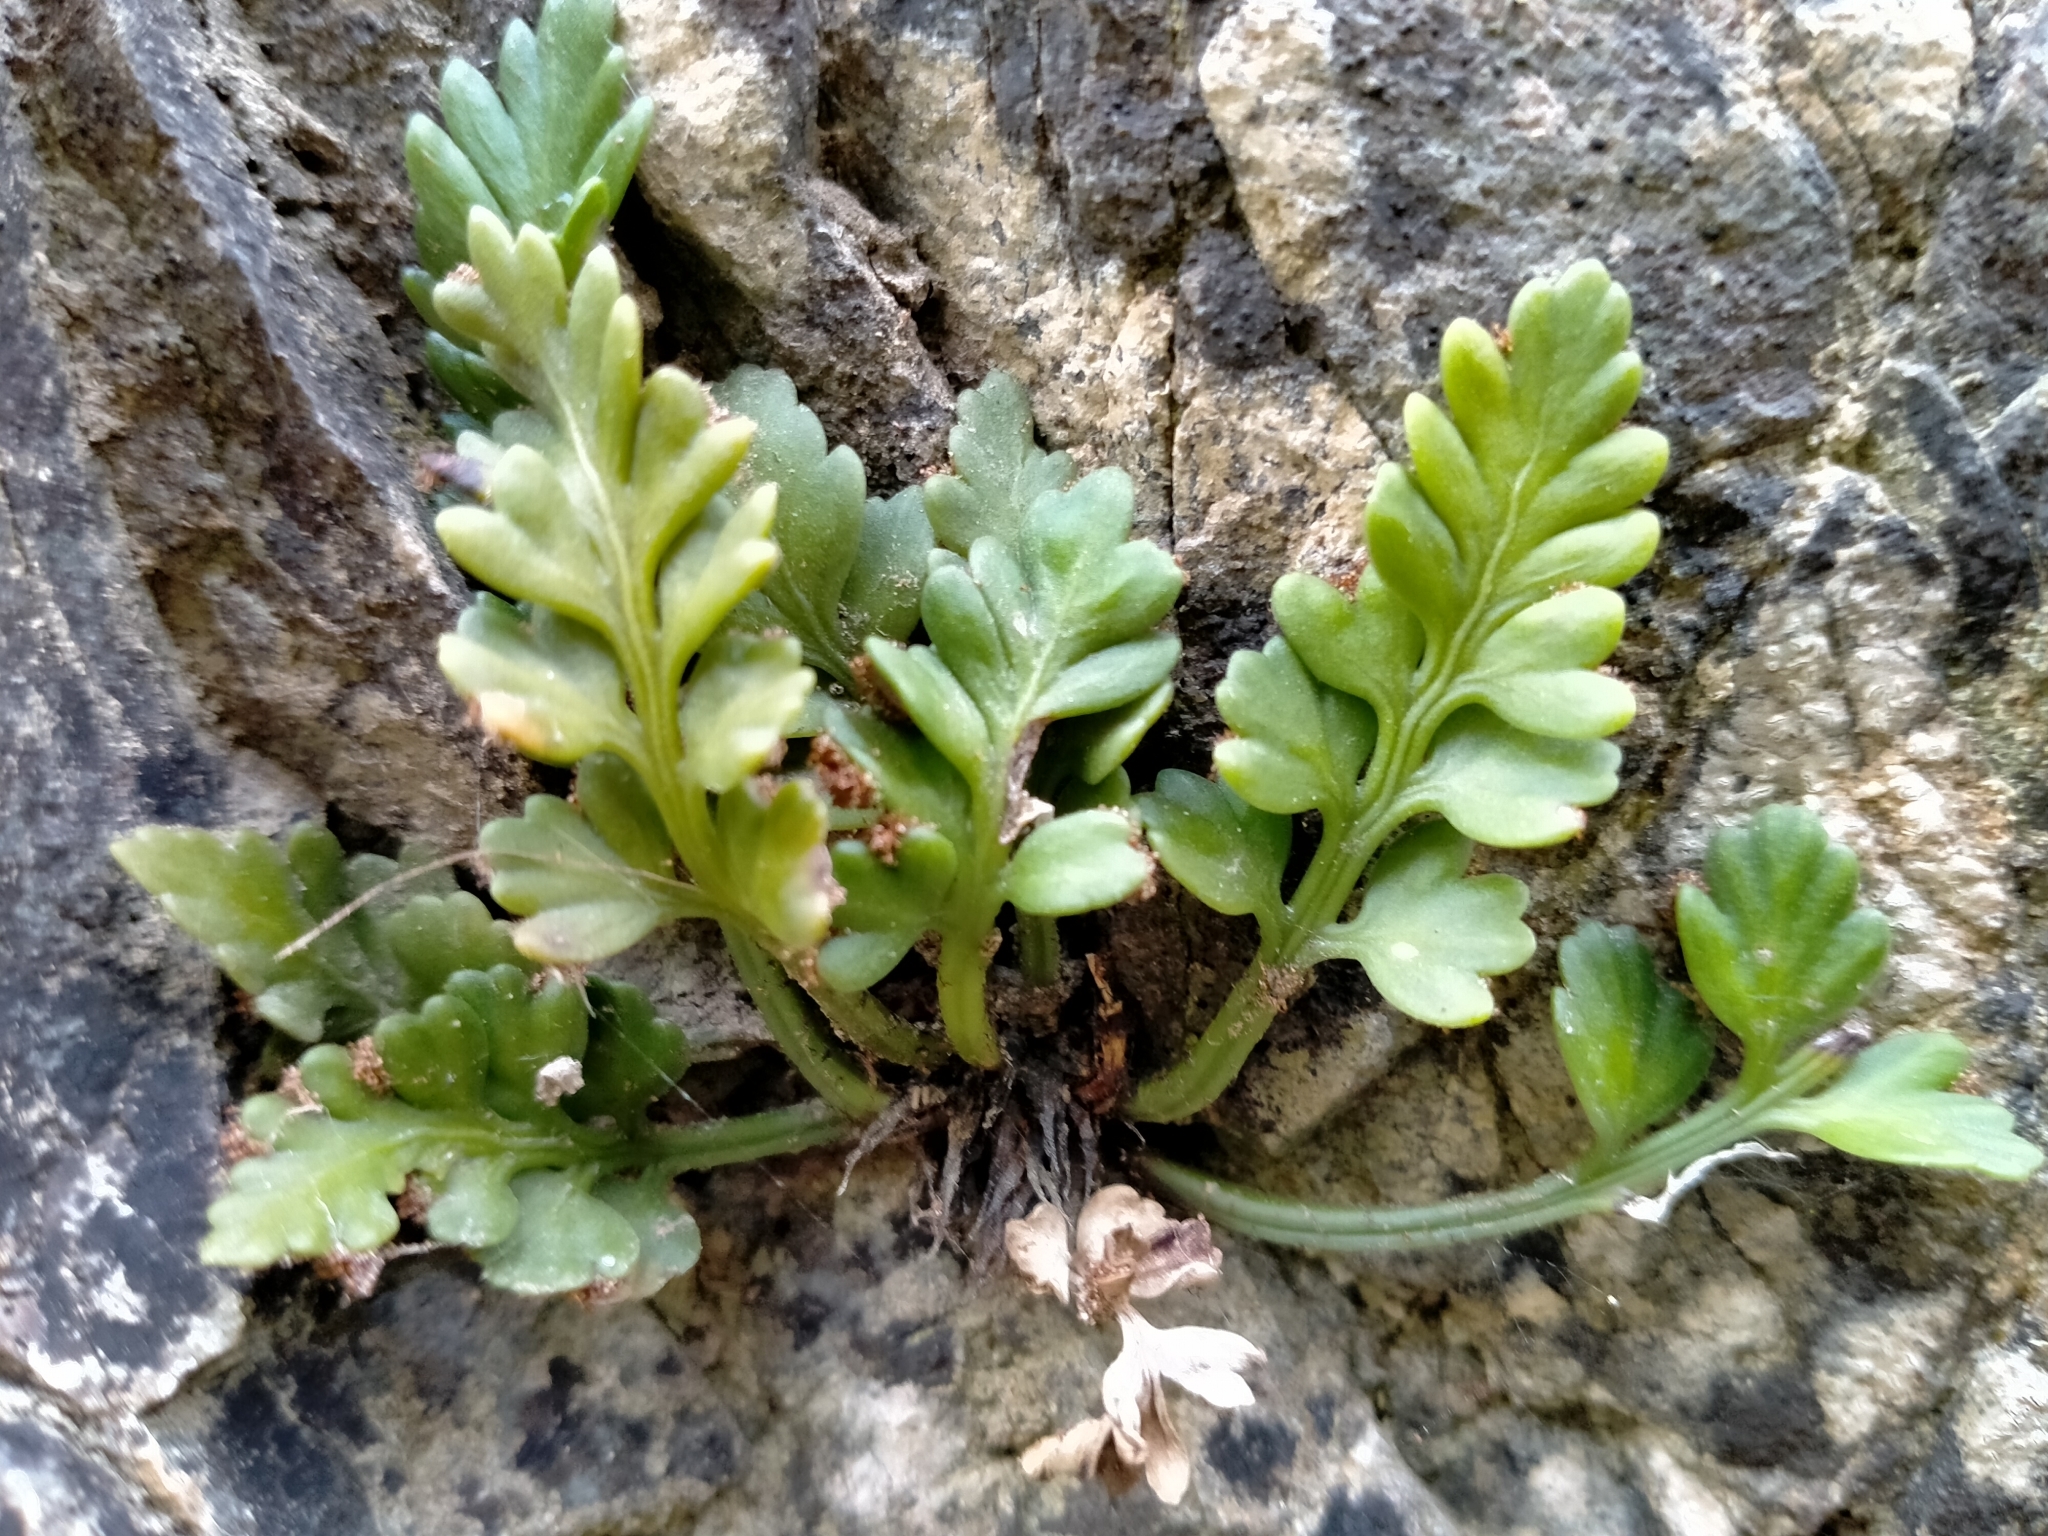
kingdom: Plantae
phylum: Tracheophyta
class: Polypodiopsida
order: Polypodiales
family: Aspleniaceae
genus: Asplenium
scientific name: Asplenium appendiculatum
